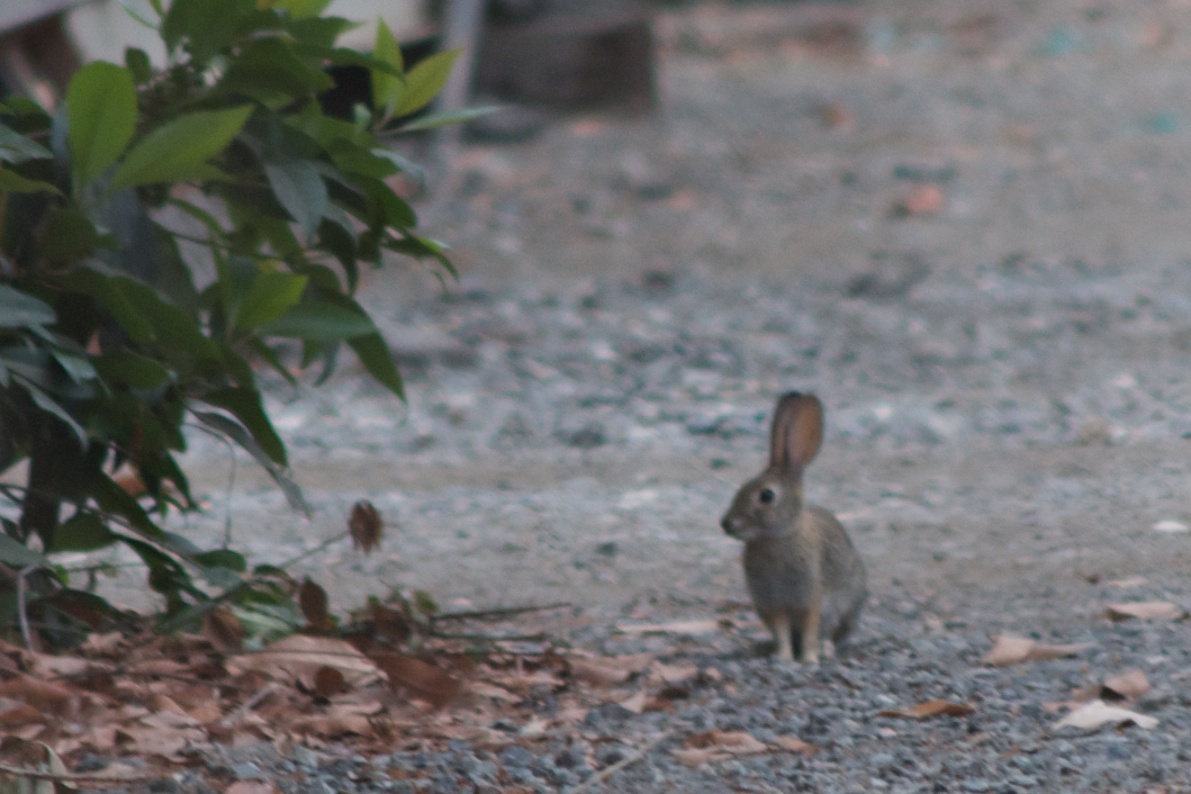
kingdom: Animalia
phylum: Chordata
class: Mammalia
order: Lagomorpha
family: Leporidae
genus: Sylvilagus
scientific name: Sylvilagus audubonii
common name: Desert cottontail
